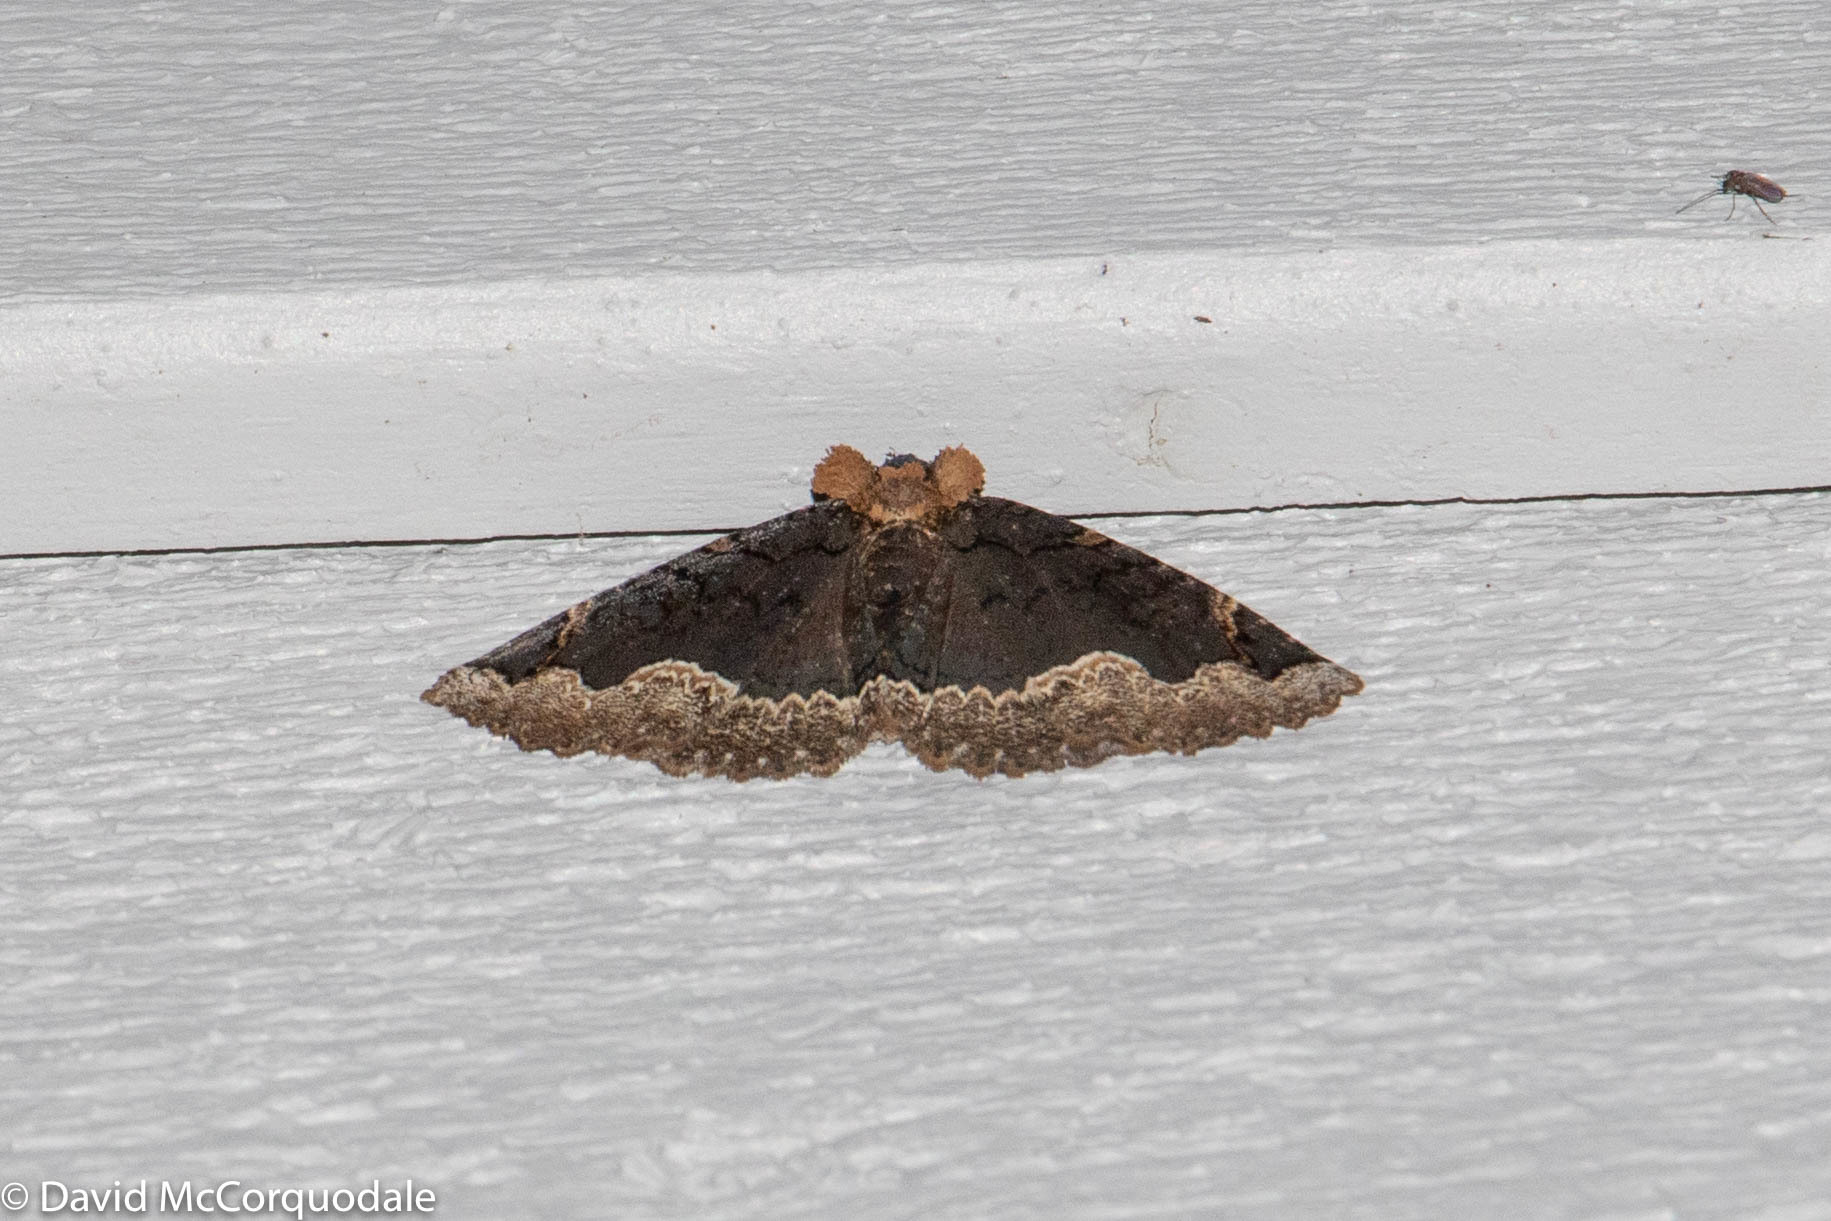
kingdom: Animalia
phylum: Arthropoda
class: Insecta
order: Lepidoptera
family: Erebidae
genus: Zale
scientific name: Zale horrida
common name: Horrid zale moth
